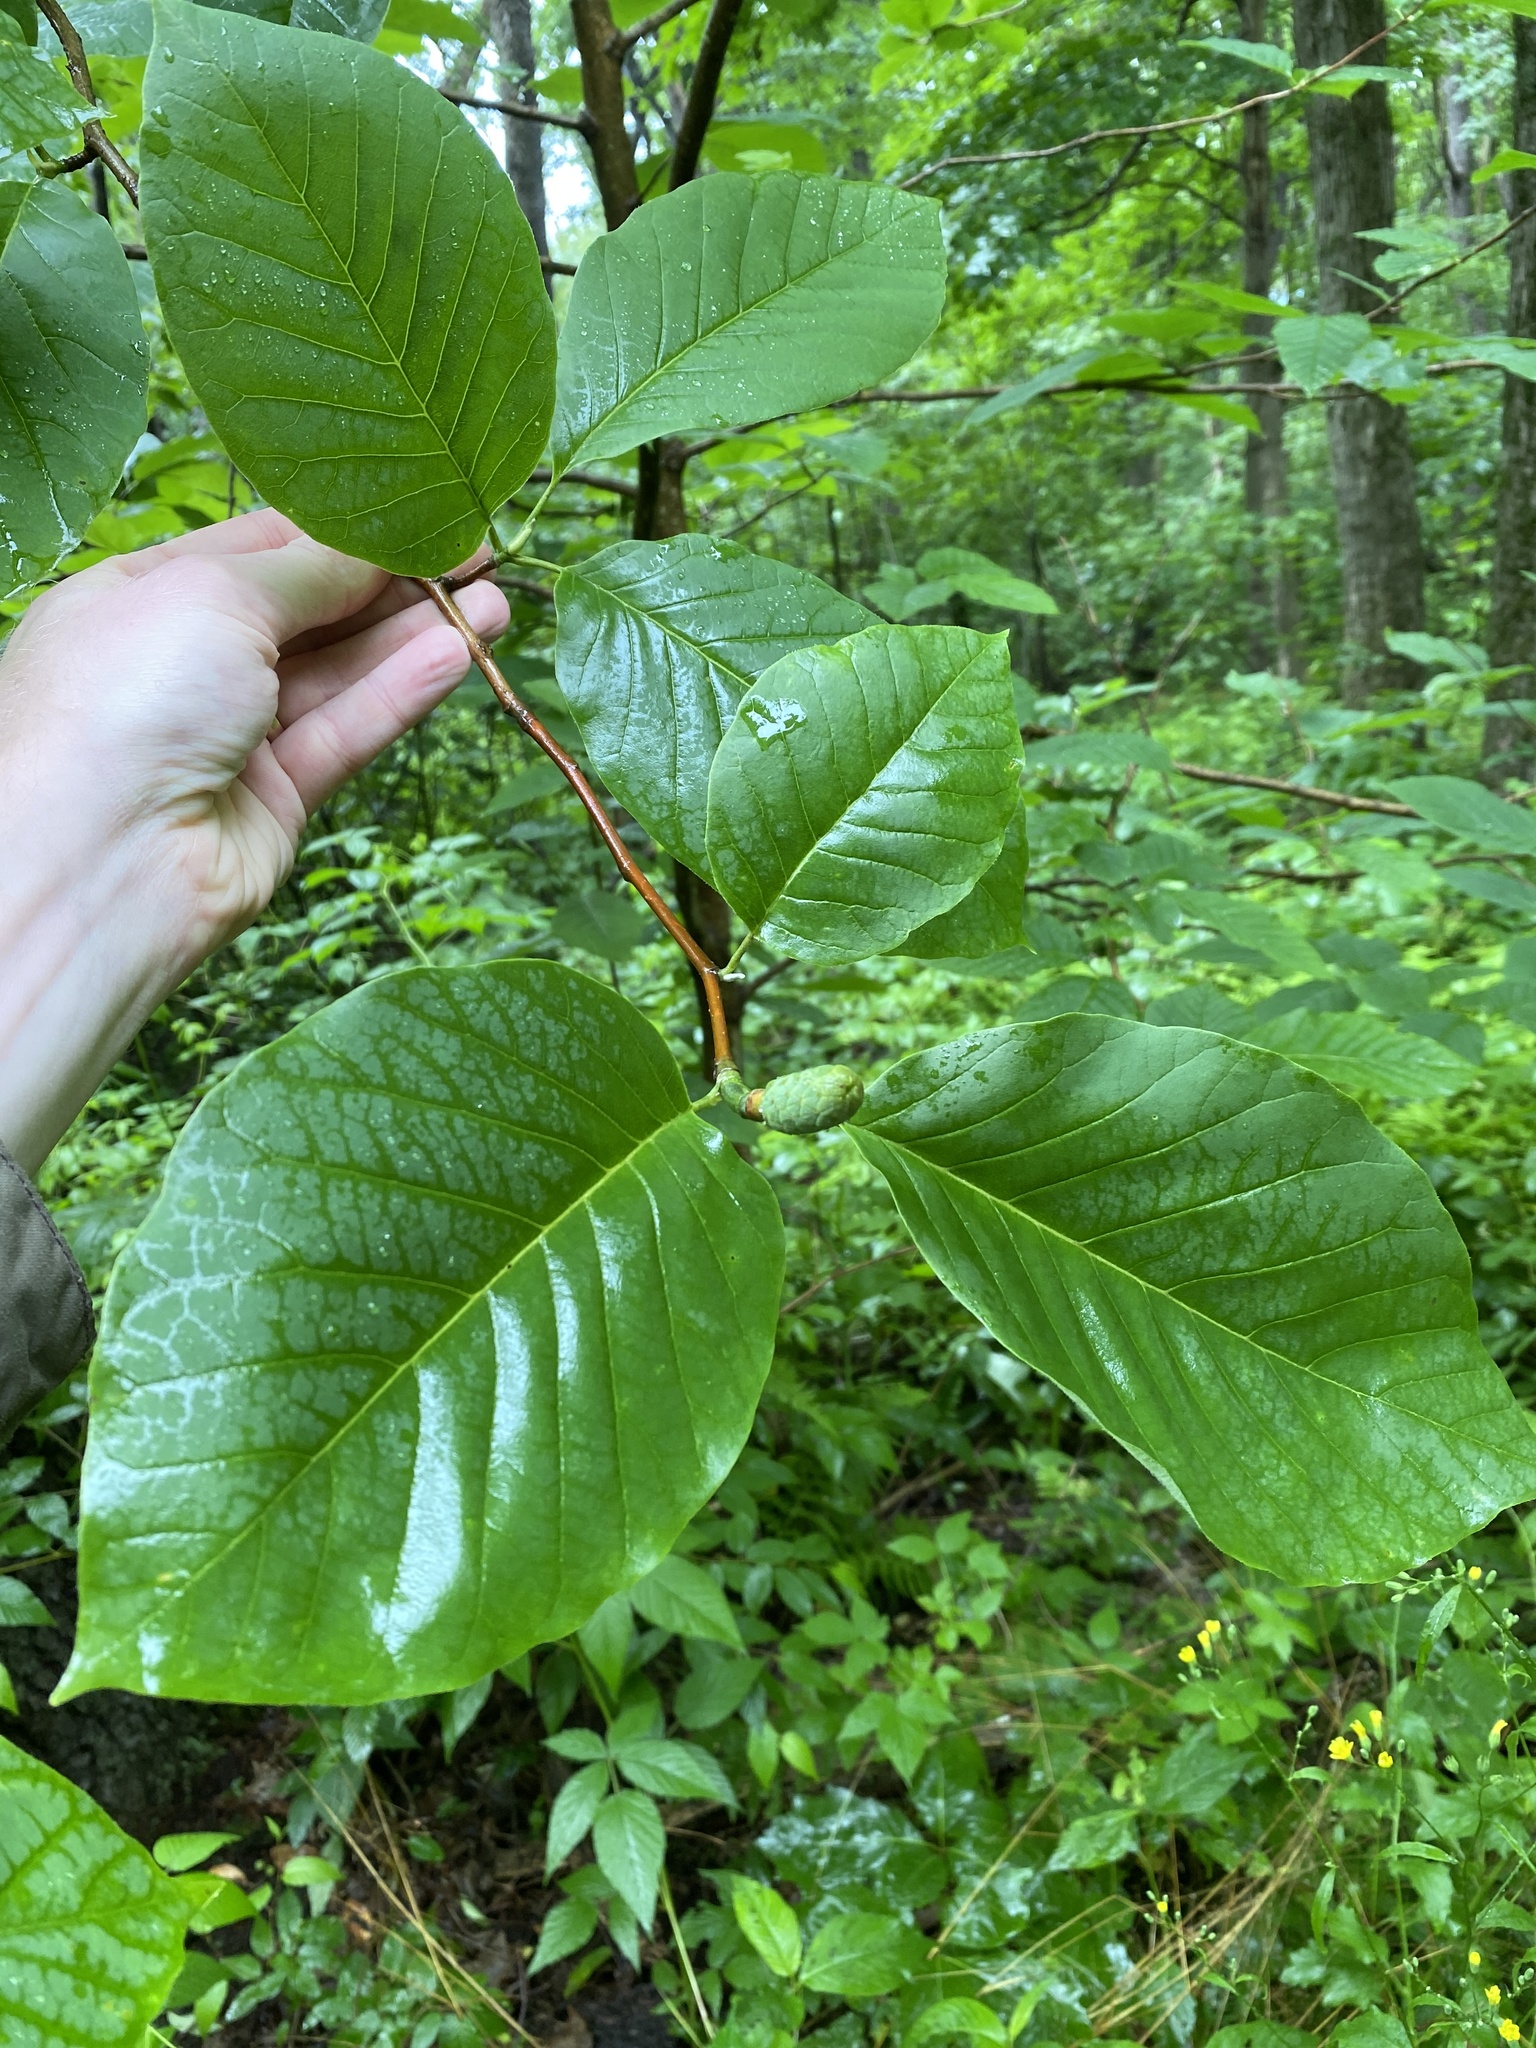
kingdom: Plantae
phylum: Tracheophyta
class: Magnoliopsida
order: Magnoliales
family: Magnoliaceae
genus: Magnolia
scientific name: Magnolia acuminata
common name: Cucumber magnolia
